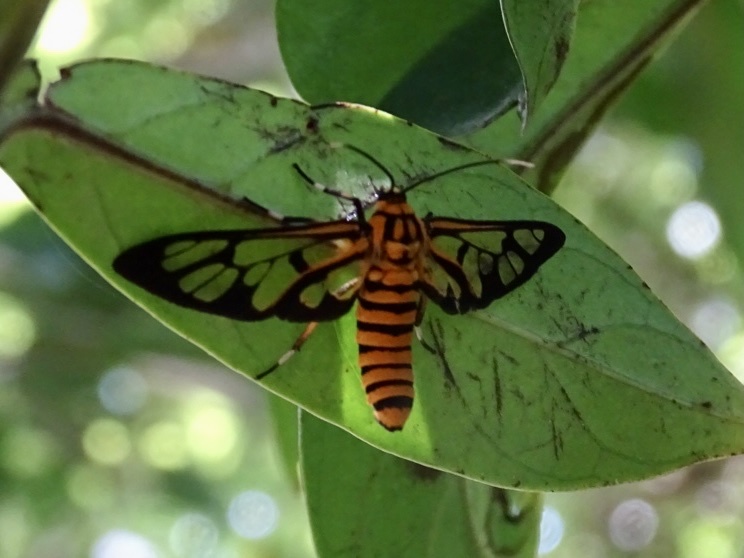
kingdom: Animalia
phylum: Arthropoda
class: Insecta
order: Lepidoptera
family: Erebidae
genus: Amata
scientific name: Amata grotei
